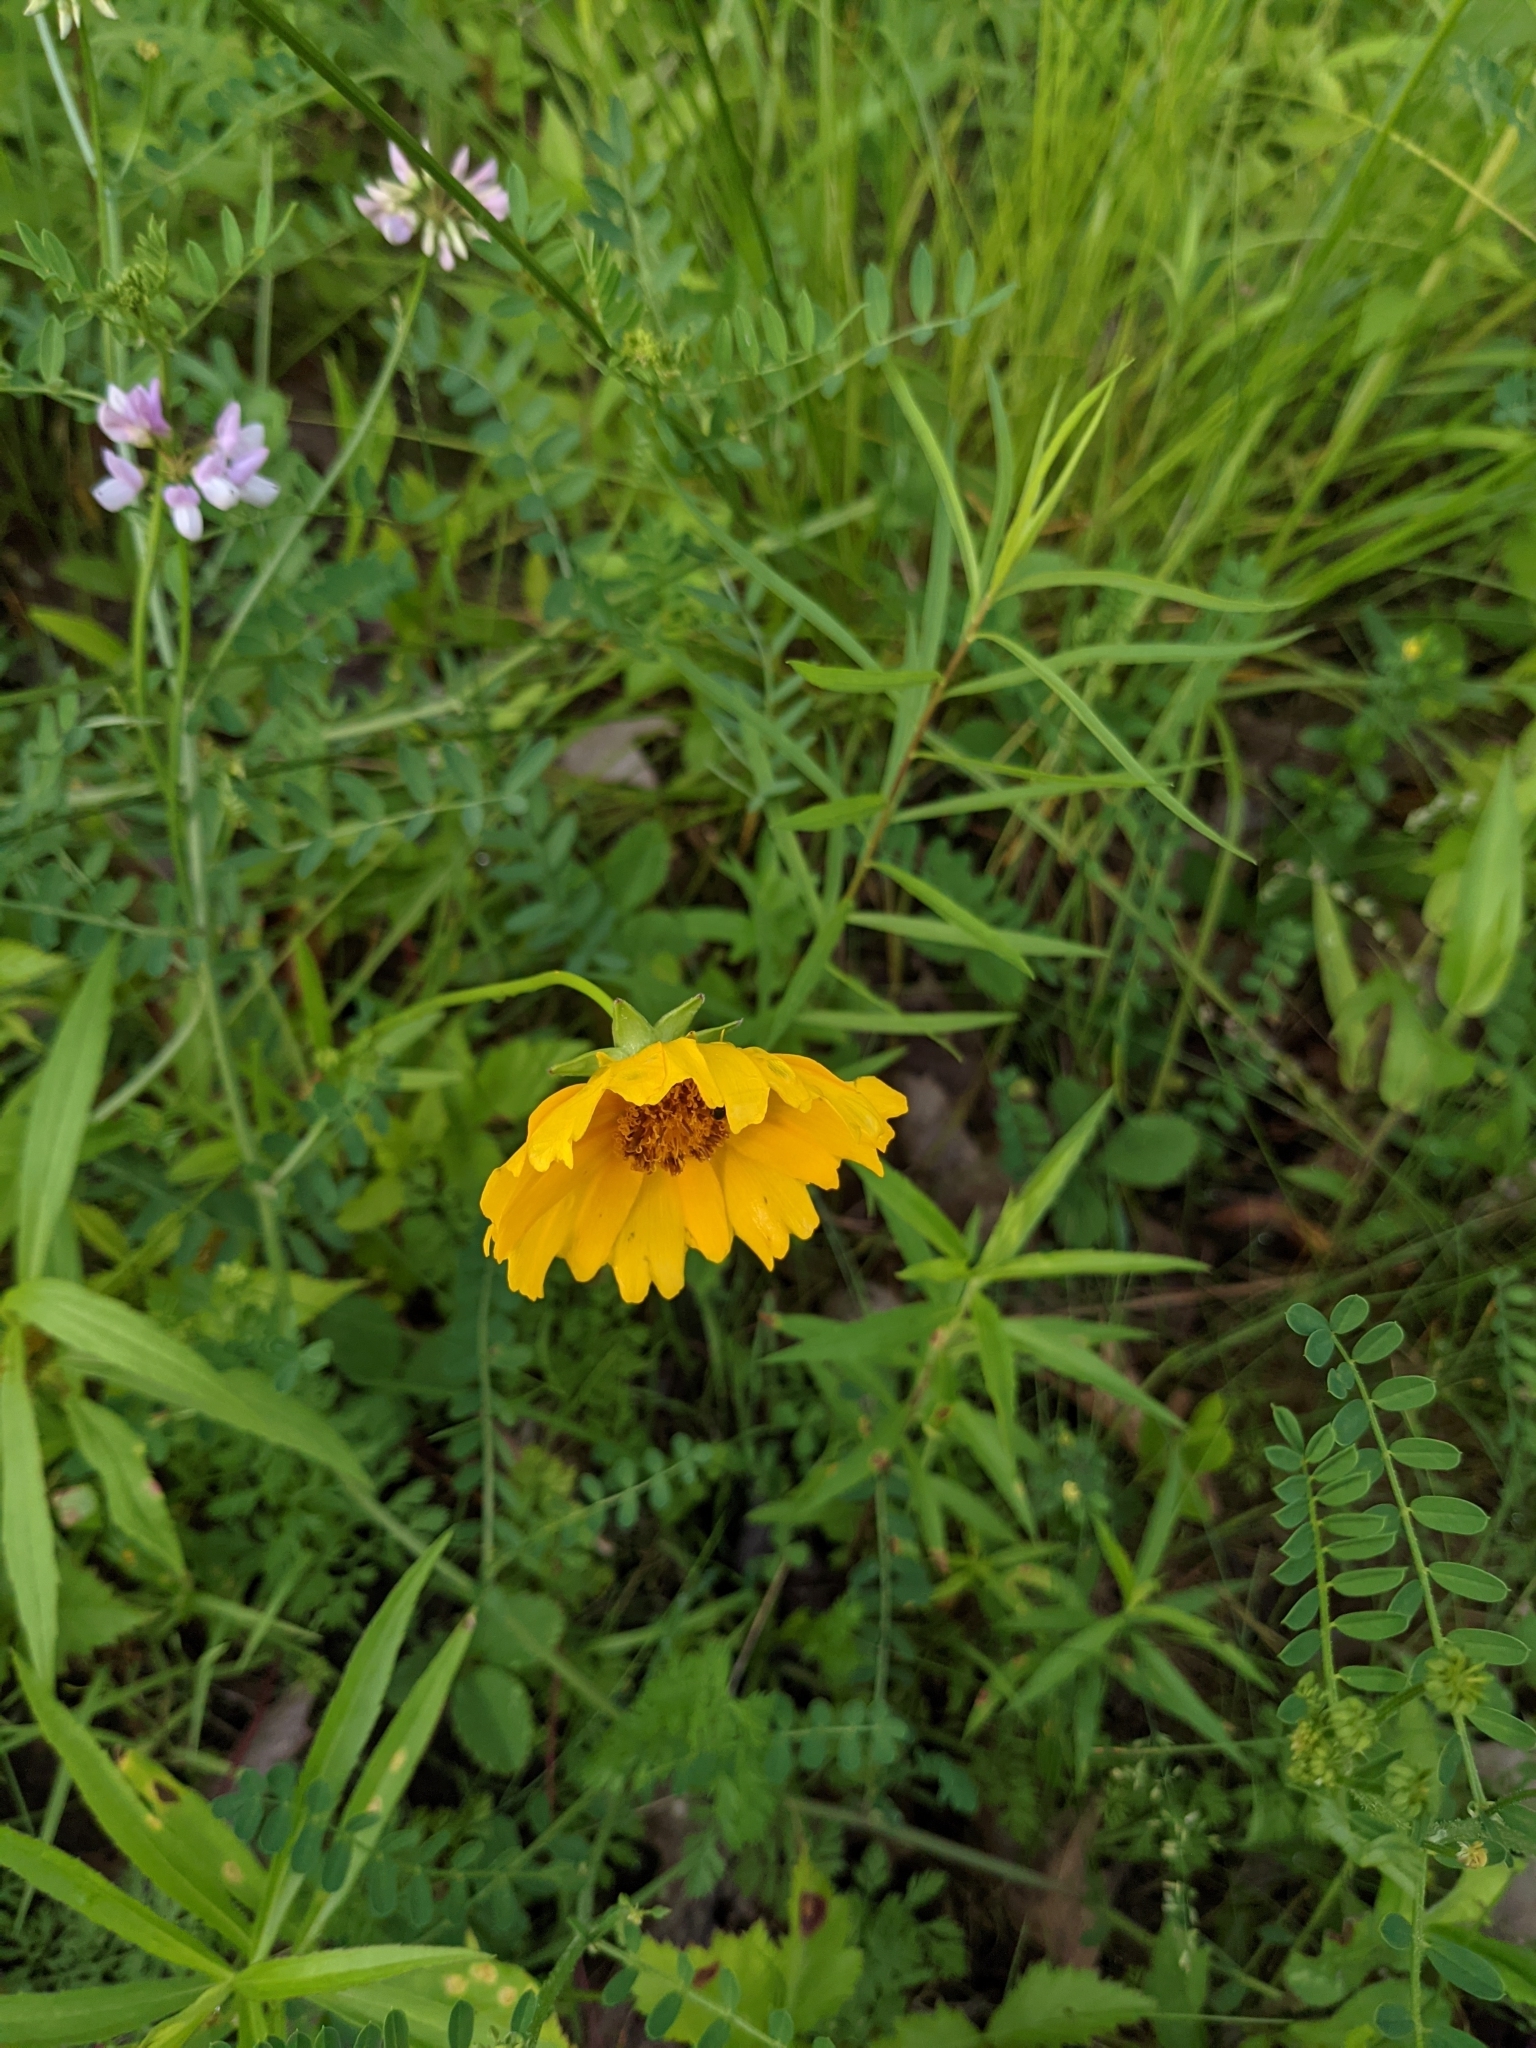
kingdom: Plantae
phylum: Tracheophyta
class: Magnoliopsida
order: Asterales
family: Asteraceae
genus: Coreopsis
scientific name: Coreopsis lanceolata
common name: Garden coreopsis
